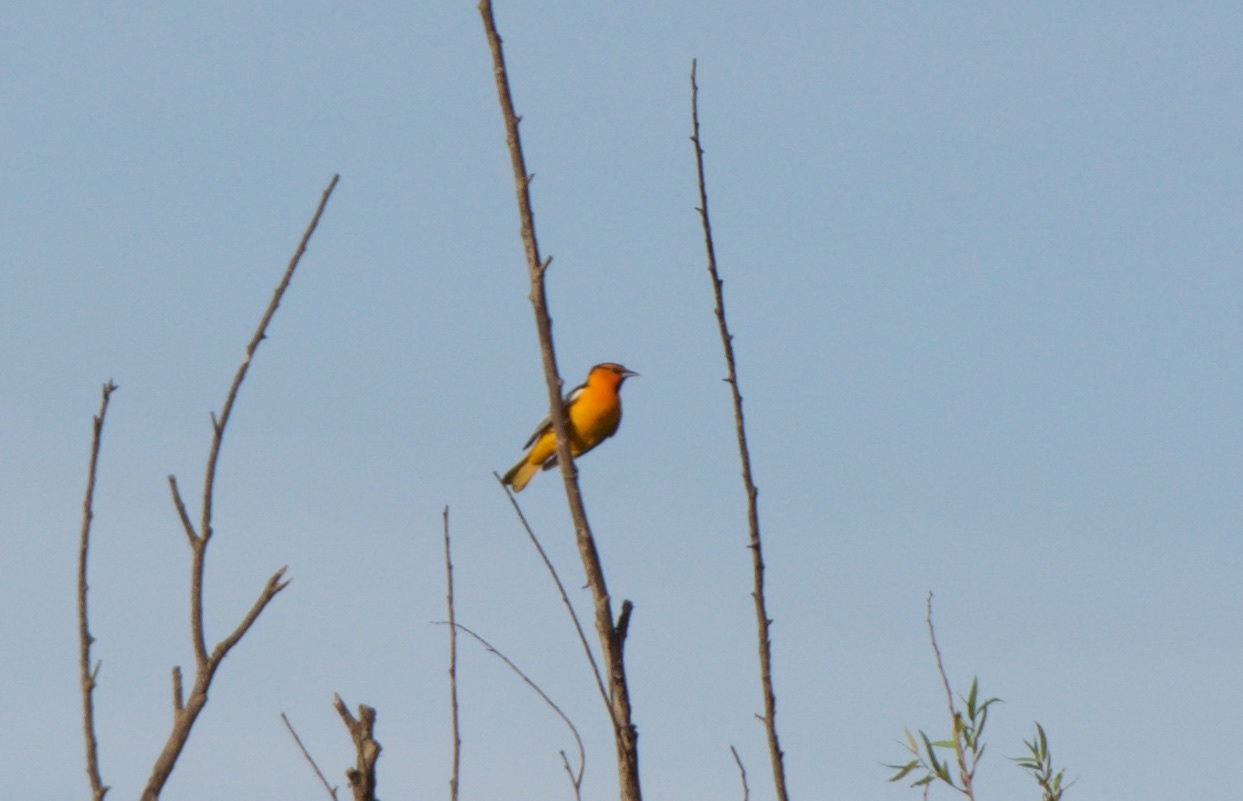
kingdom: Animalia
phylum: Chordata
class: Aves
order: Passeriformes
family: Icteridae
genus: Icterus
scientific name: Icterus bullockii
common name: Bullock's oriole
